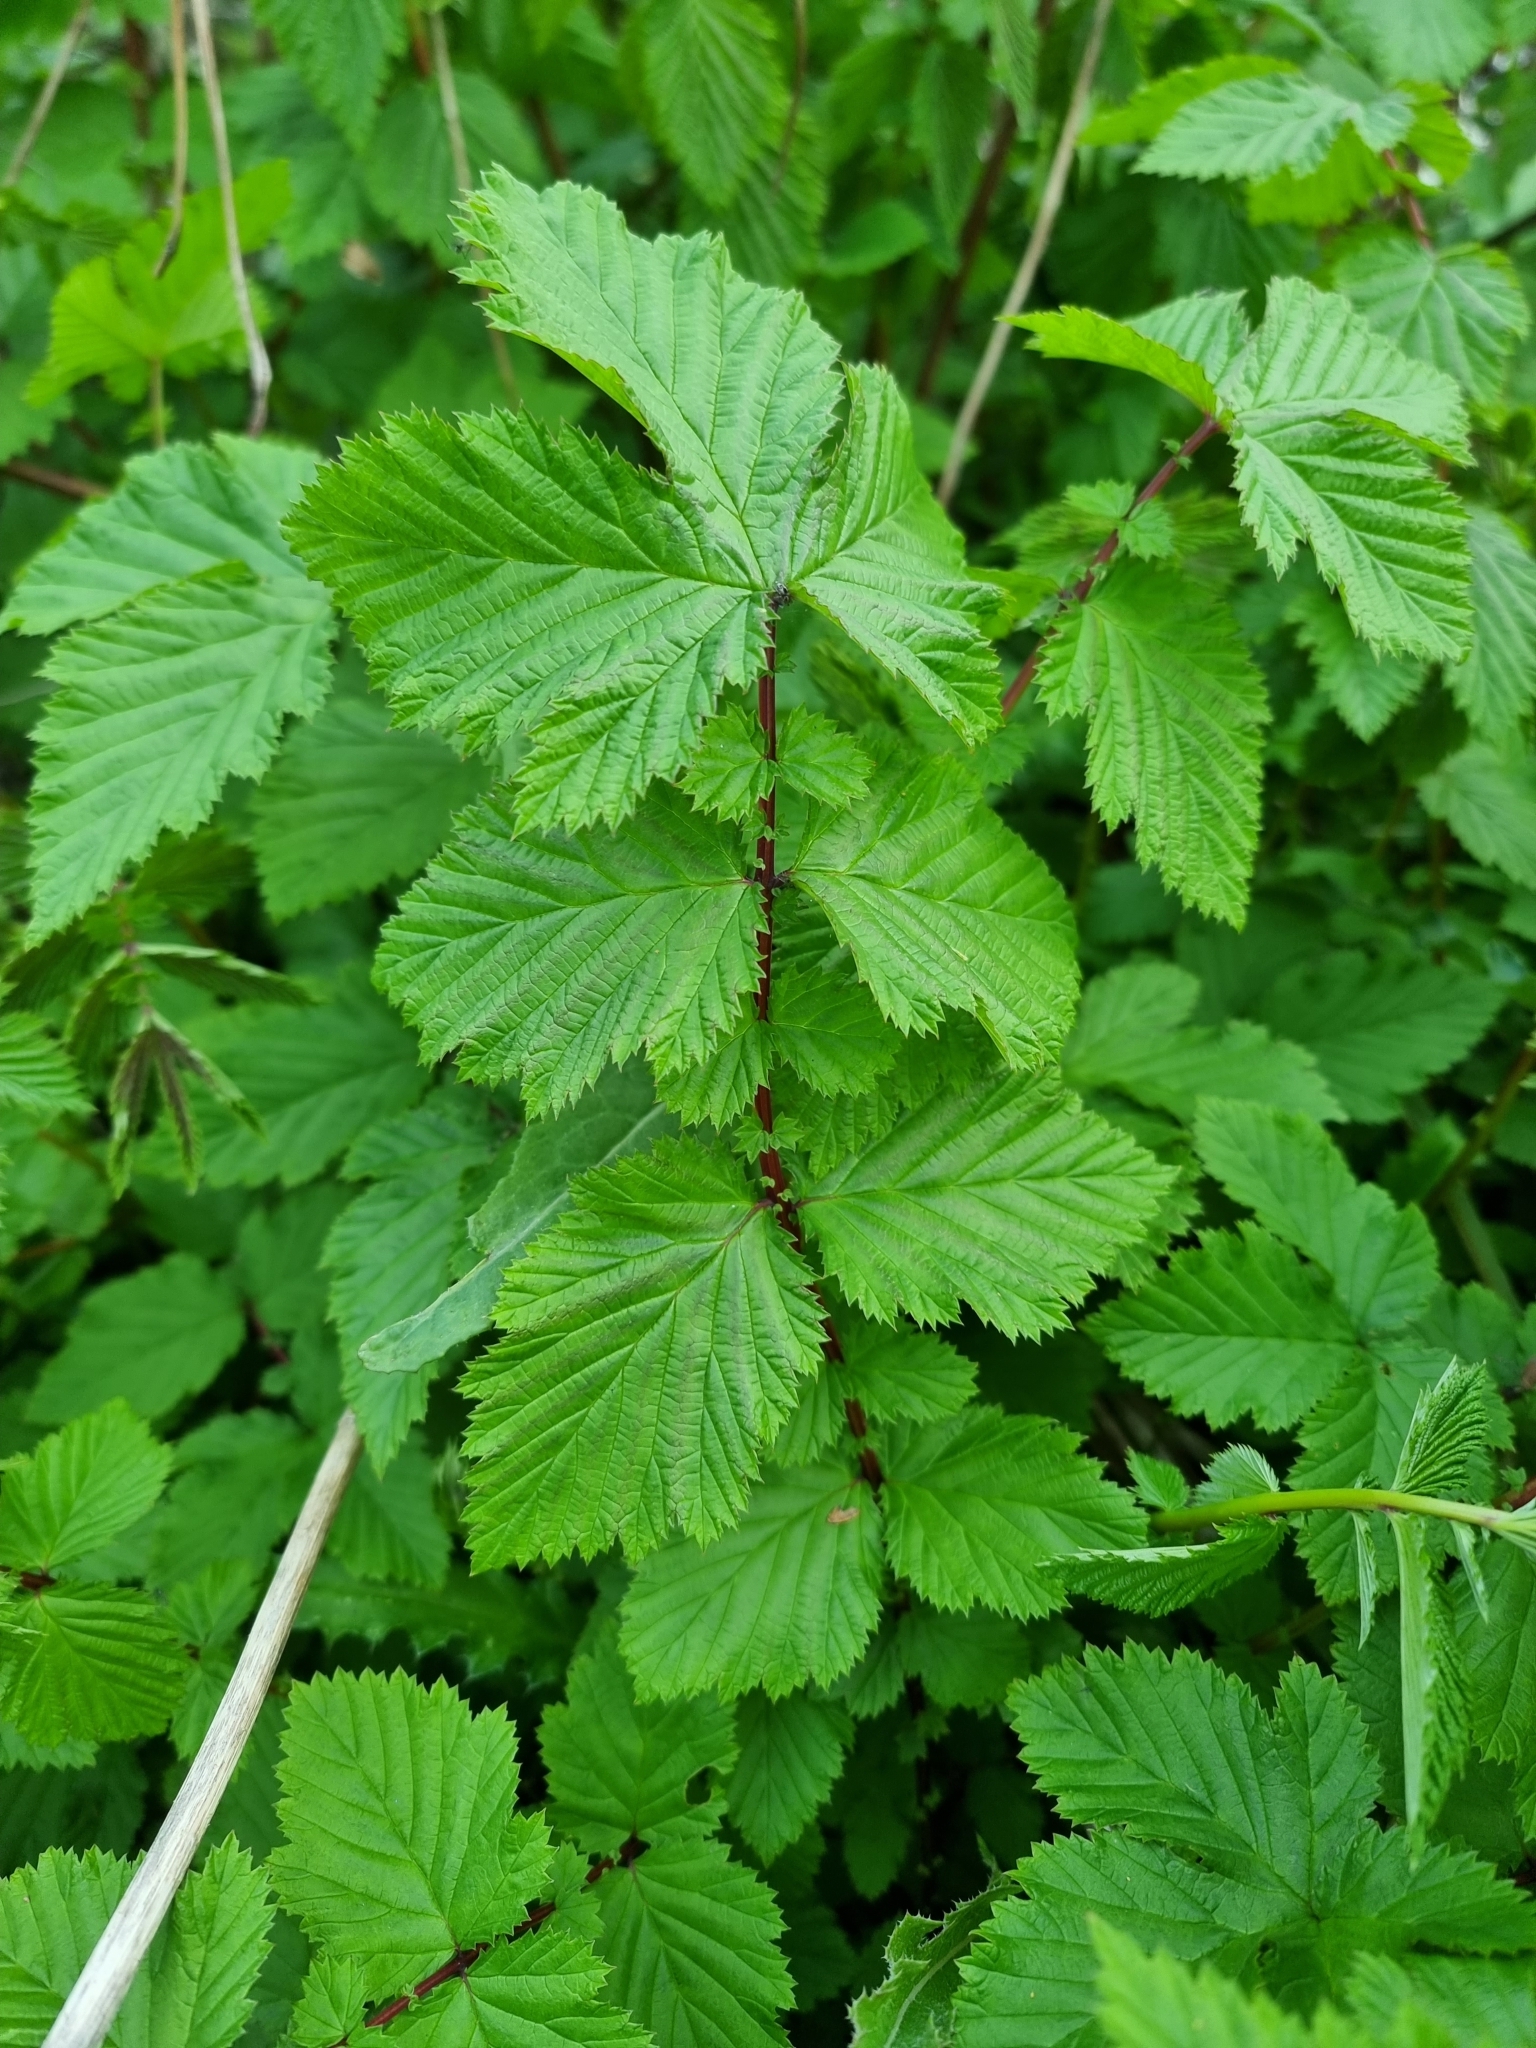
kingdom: Plantae
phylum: Tracheophyta
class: Magnoliopsida
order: Rosales
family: Rosaceae
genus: Filipendula
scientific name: Filipendula ulmaria
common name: Meadowsweet
